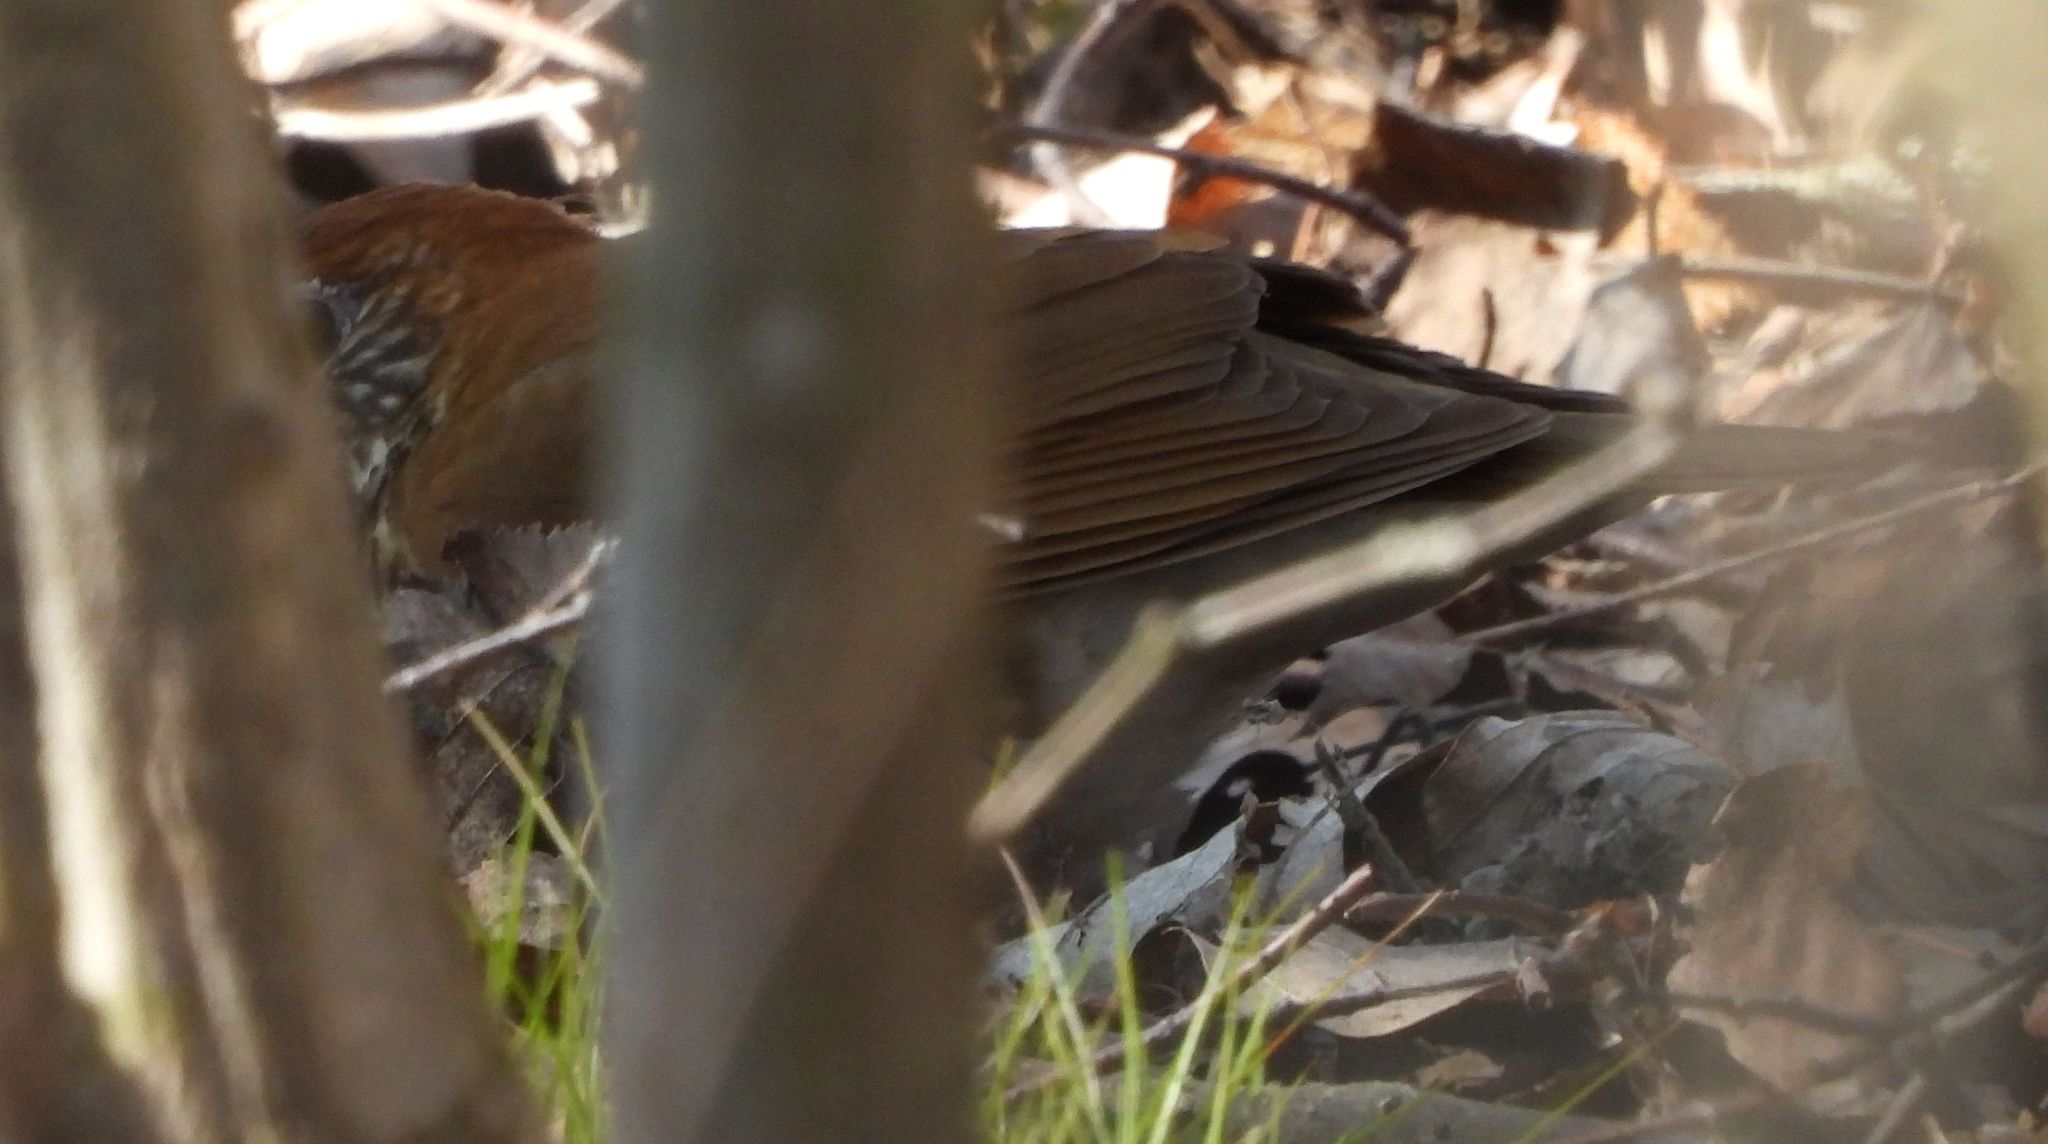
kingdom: Animalia
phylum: Chordata
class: Aves
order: Passeriformes
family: Turdidae
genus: Hylocichla
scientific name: Hylocichla mustelina
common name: Wood thrush
